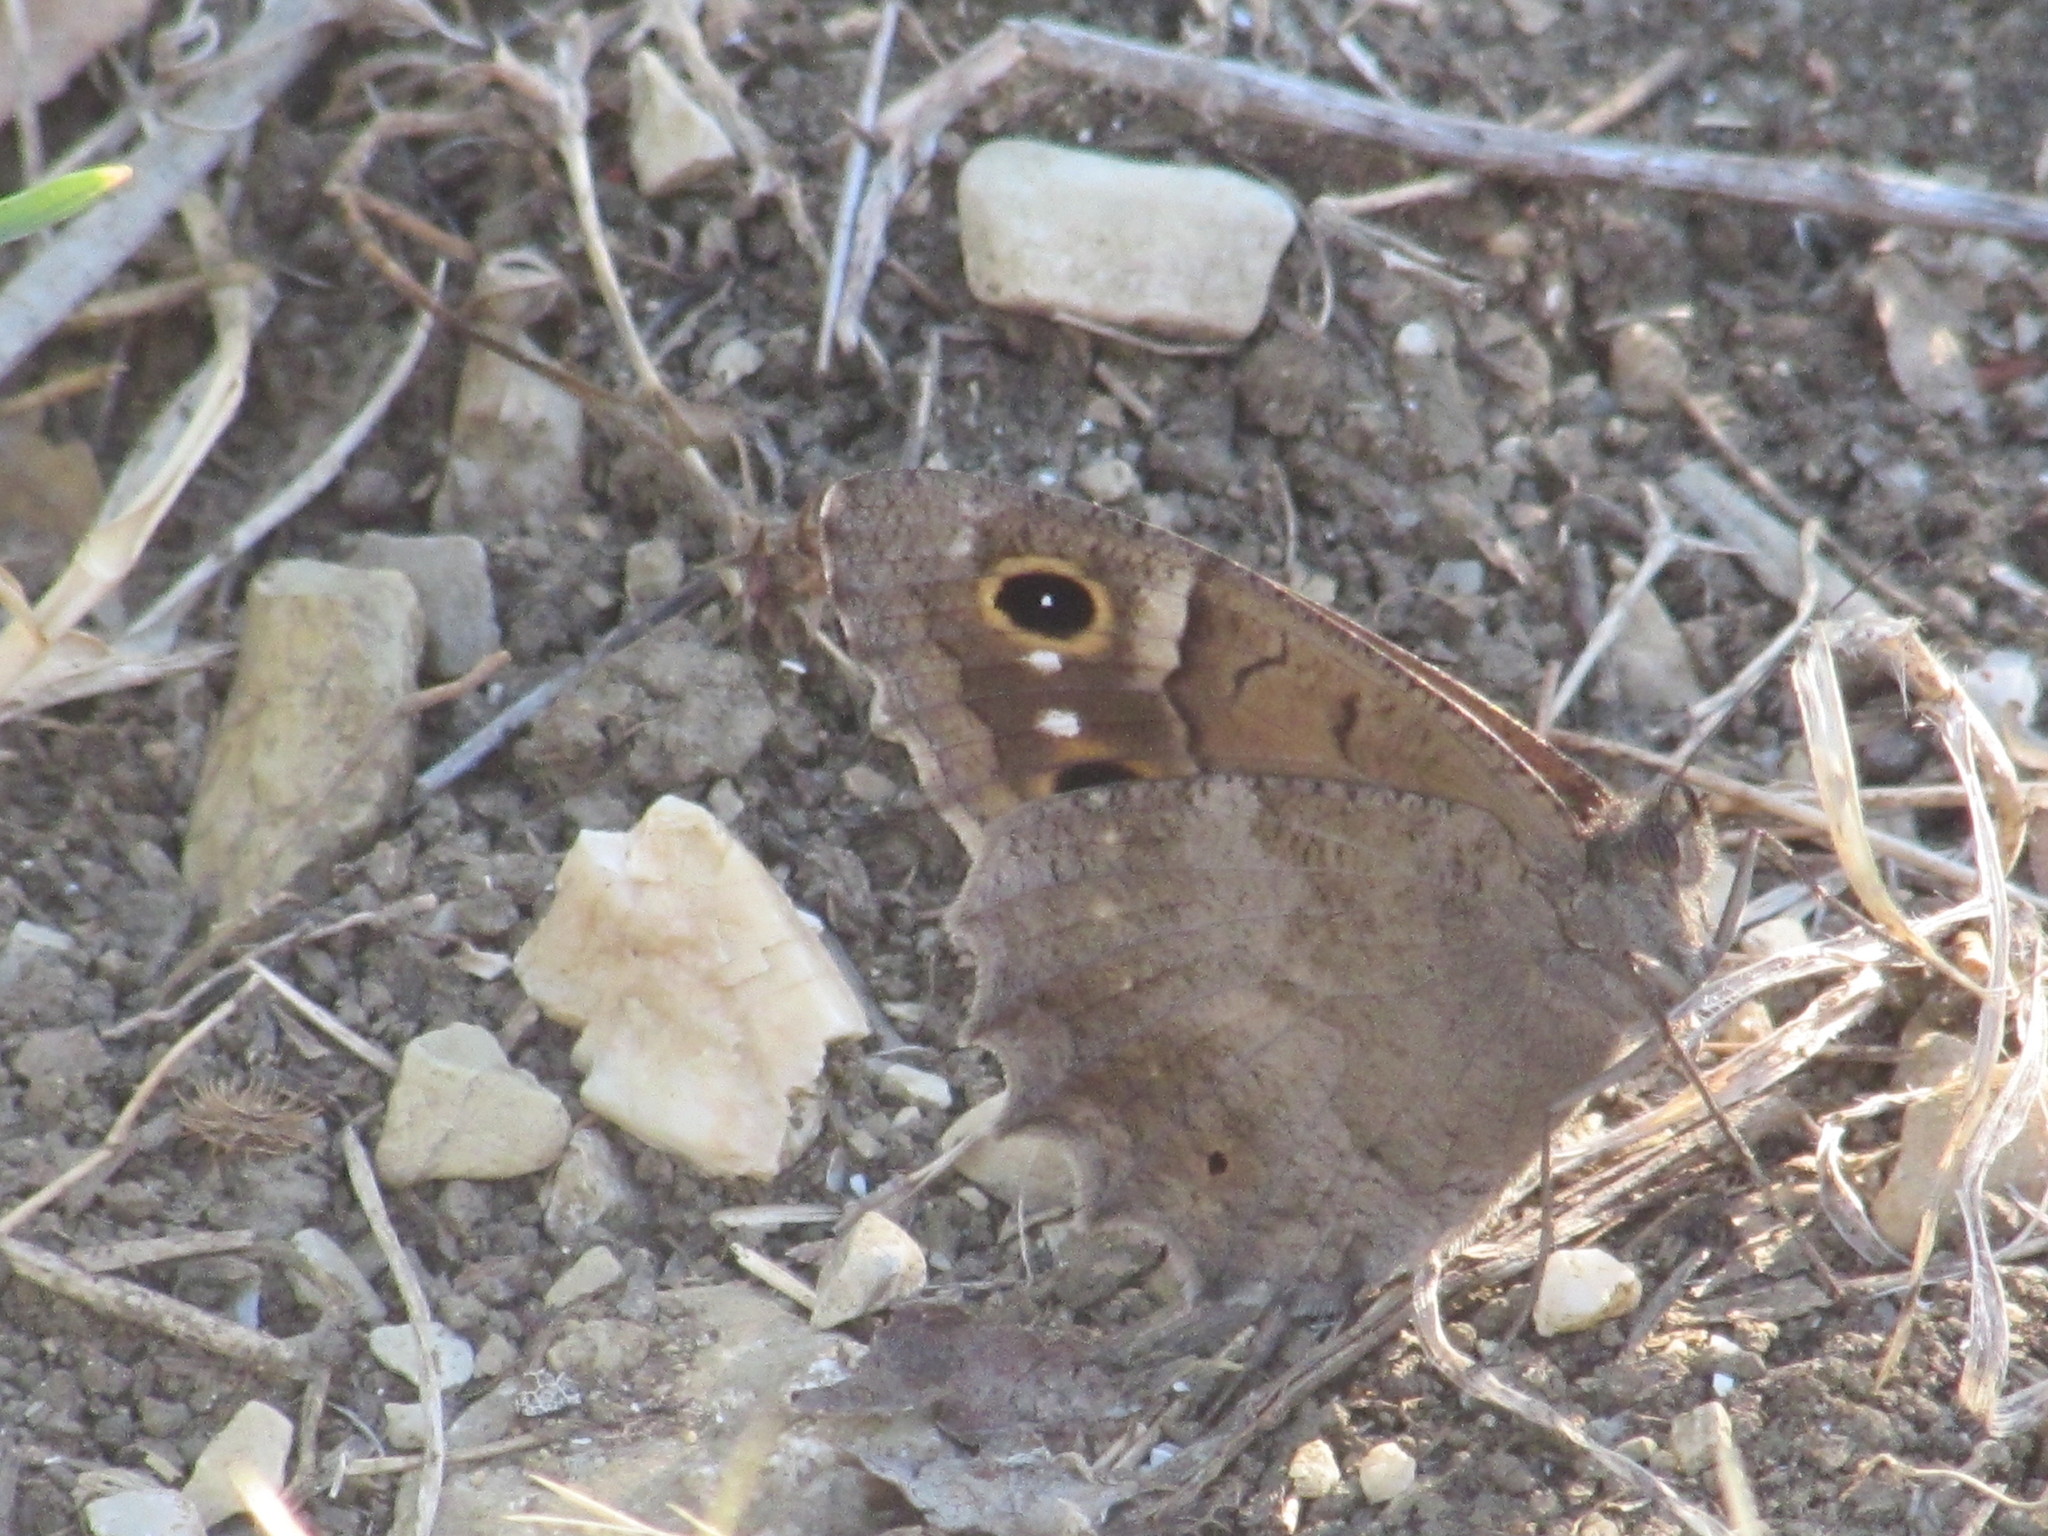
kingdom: Animalia
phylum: Arthropoda
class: Insecta
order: Lepidoptera
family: Nymphalidae
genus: Hipparchia
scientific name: Hipparchia statilinus
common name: Tree grayling
